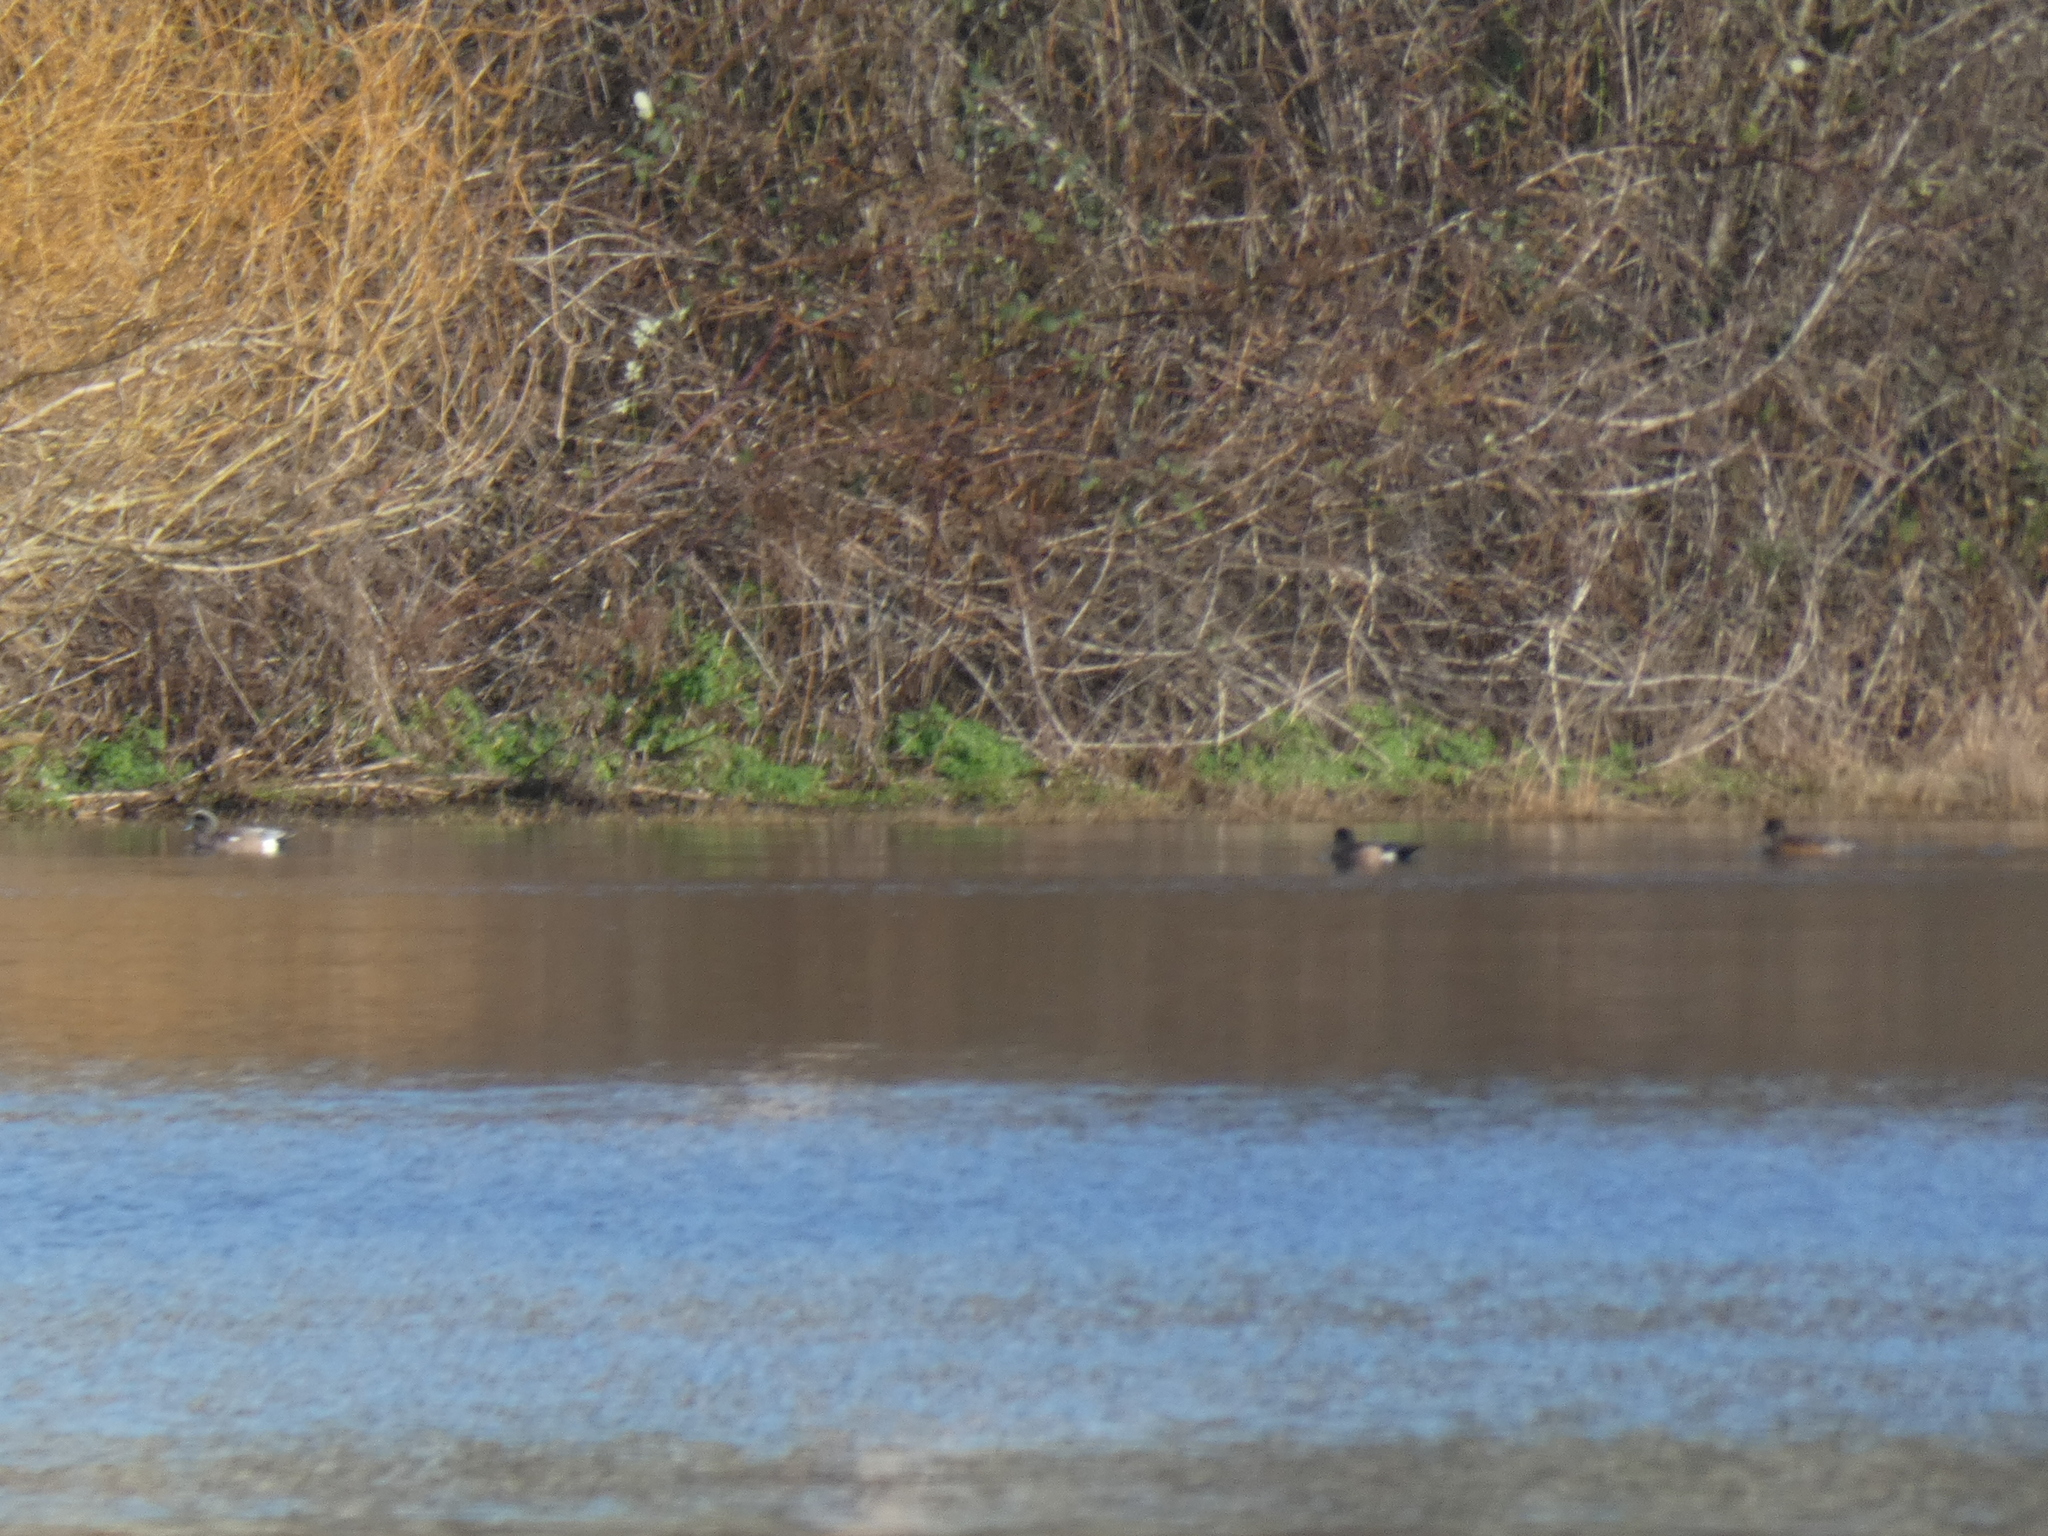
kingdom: Animalia
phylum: Chordata
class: Aves
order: Anseriformes
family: Anatidae
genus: Mareca
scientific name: Mareca americana
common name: American wigeon
